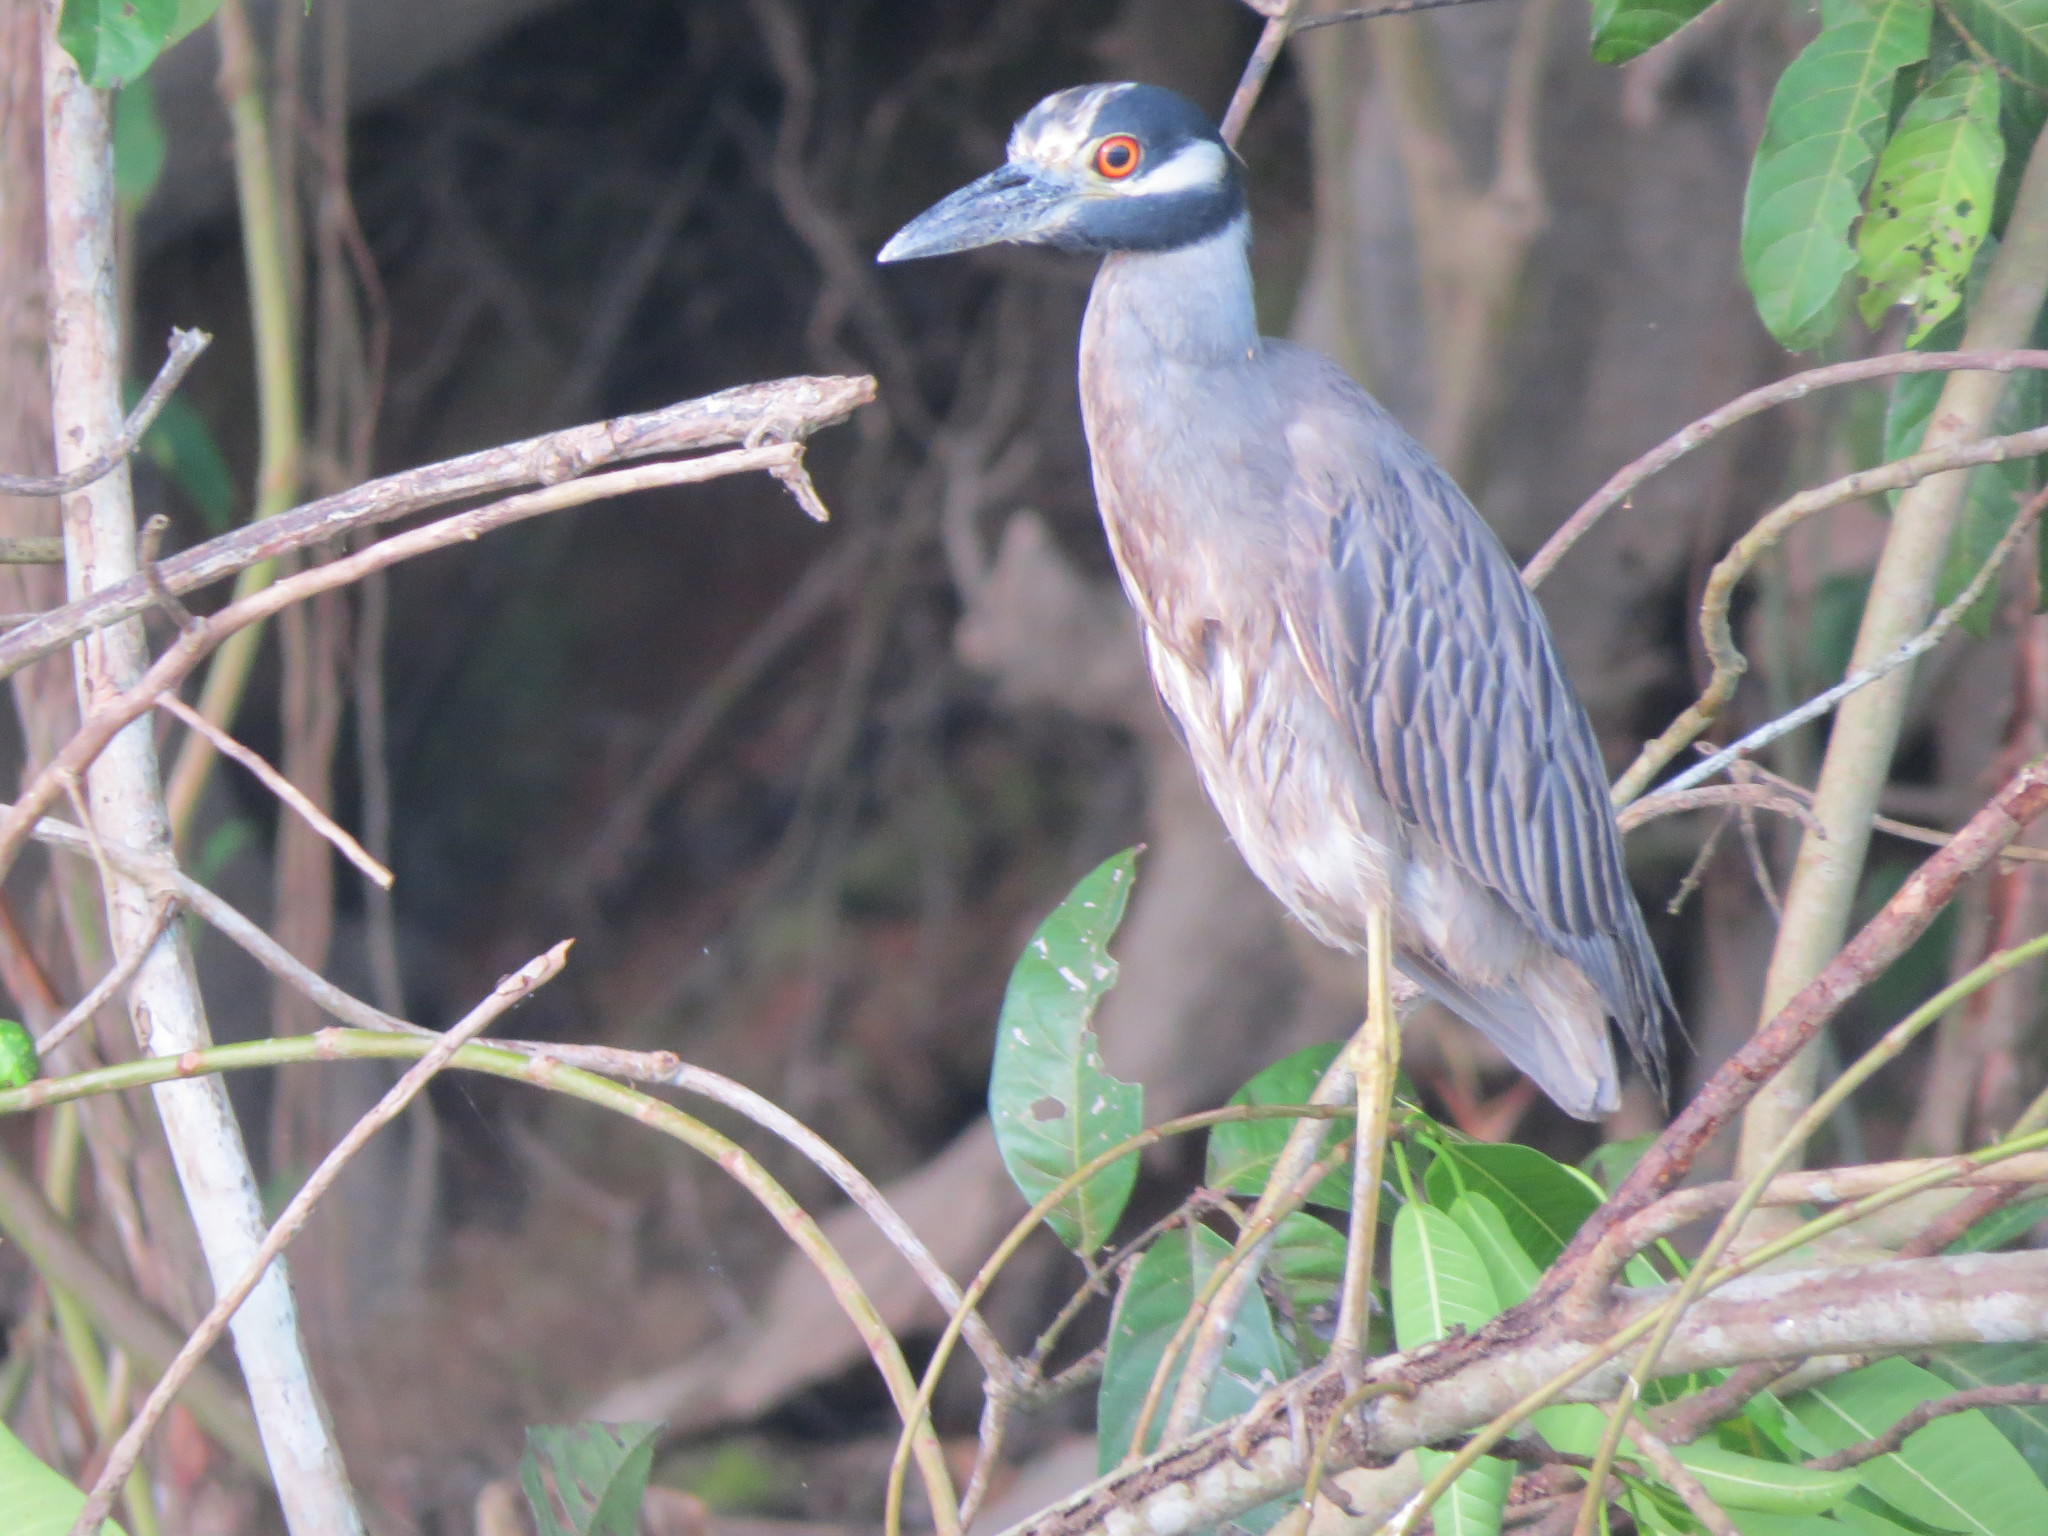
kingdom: Animalia
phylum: Chordata
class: Aves
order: Pelecaniformes
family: Ardeidae
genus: Nyctanassa
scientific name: Nyctanassa violacea
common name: Yellow-crowned night heron
